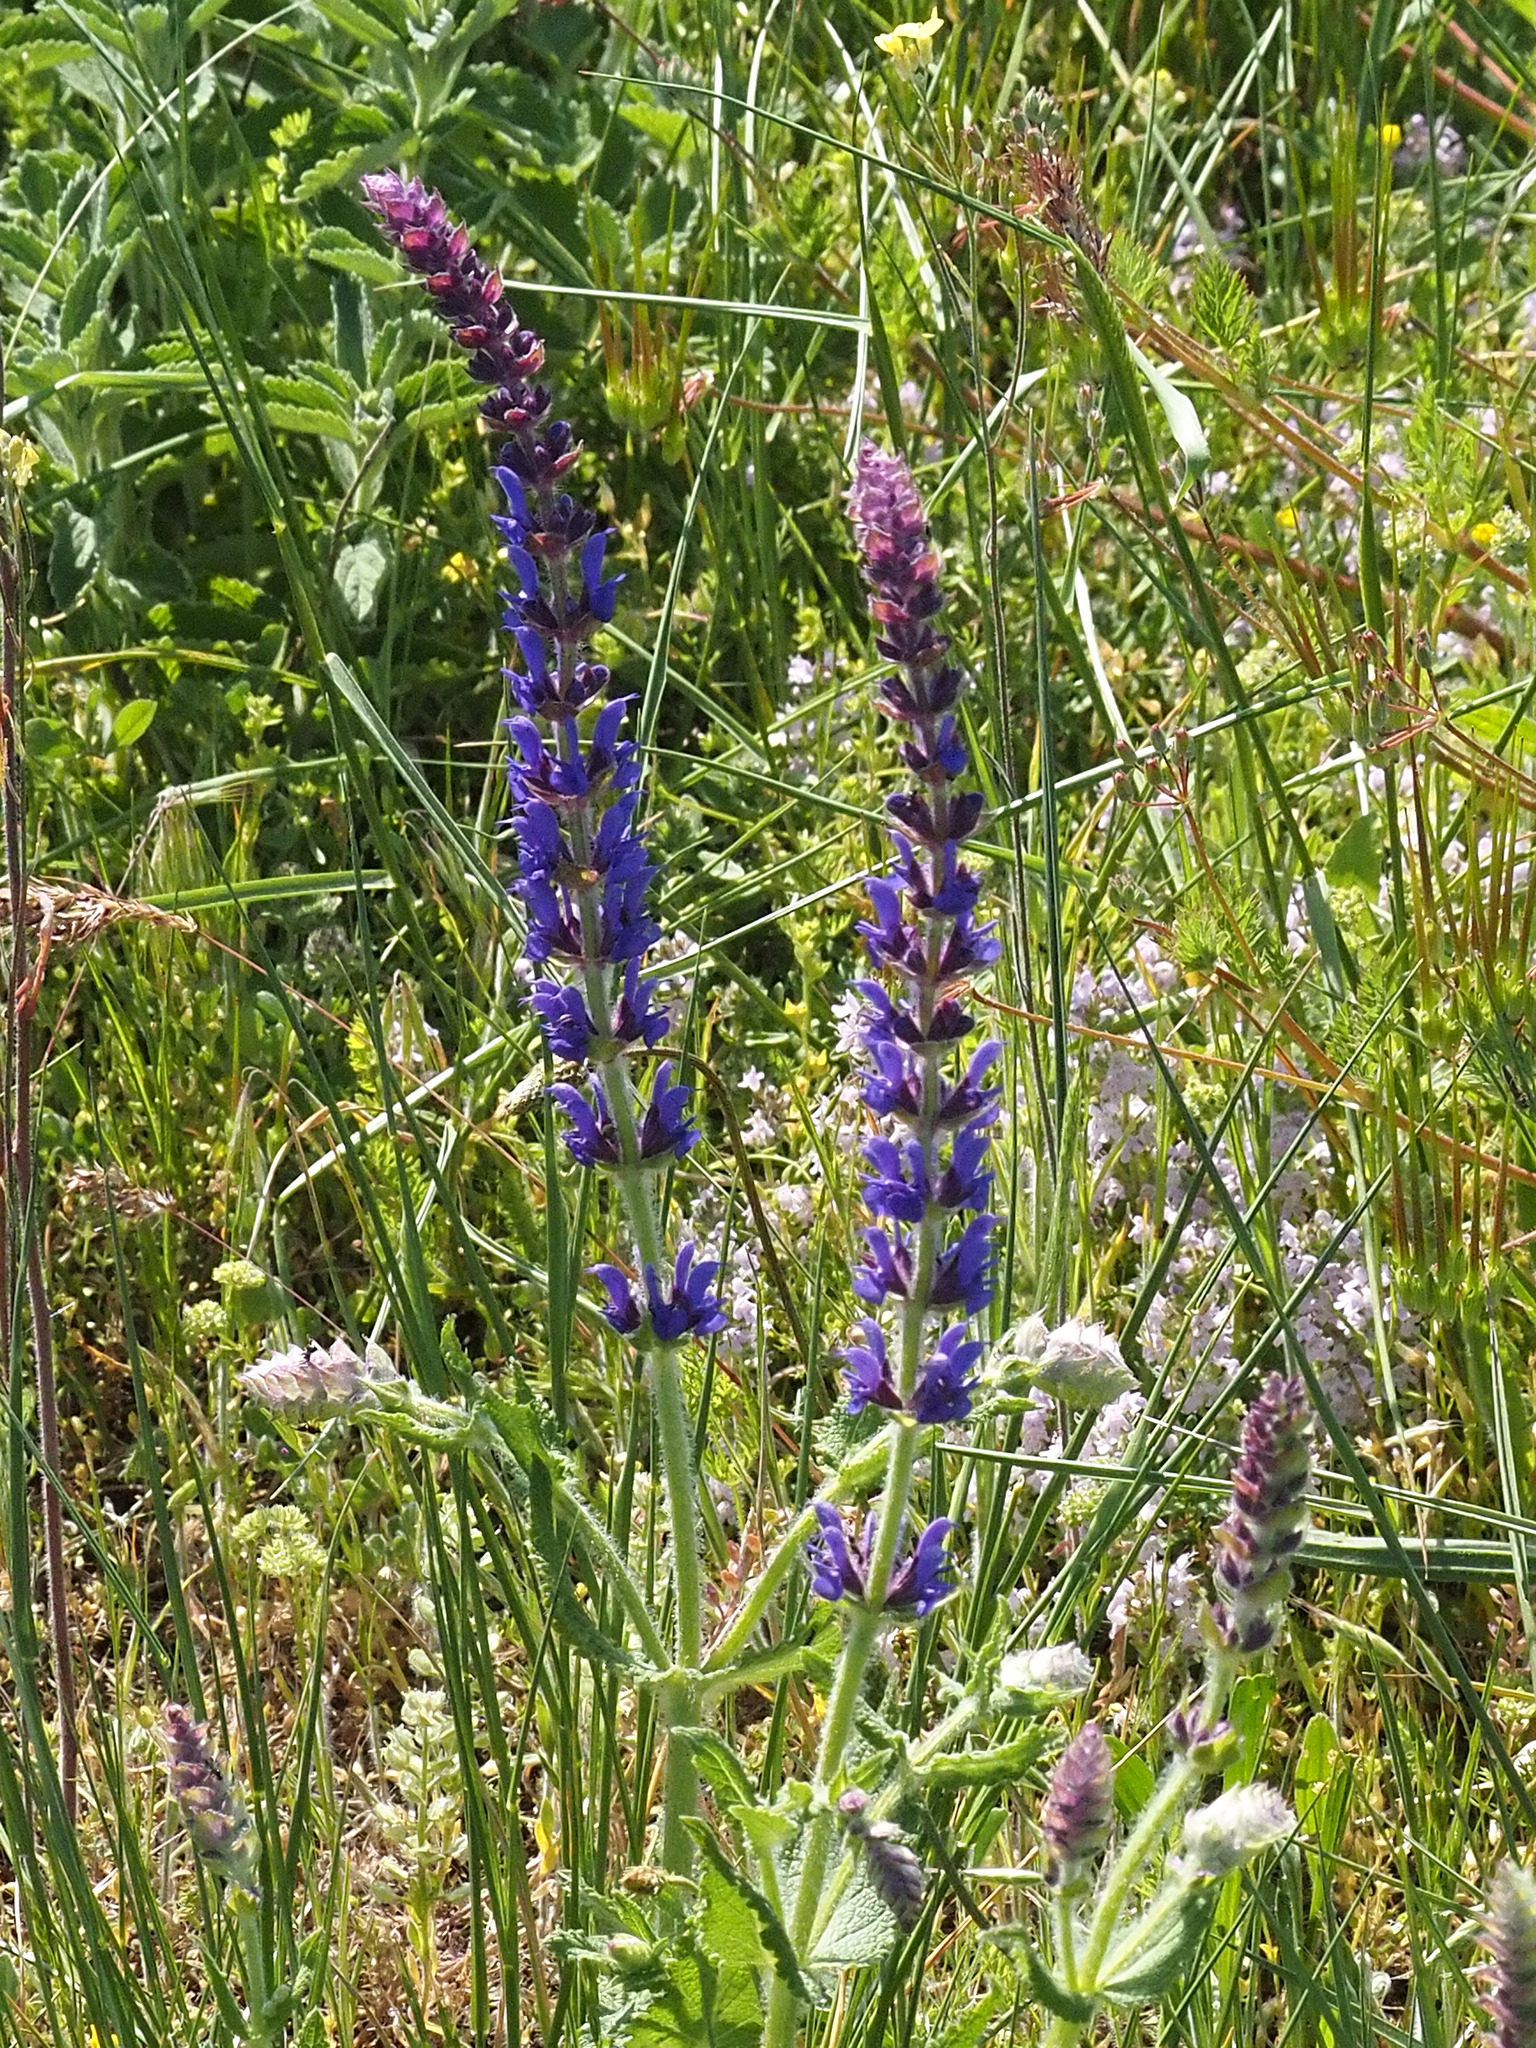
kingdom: Plantae
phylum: Tracheophyta
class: Magnoliopsida
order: Lamiales
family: Lamiaceae
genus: Salvia
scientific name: Salvia nemorosa
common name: Balkan clary
